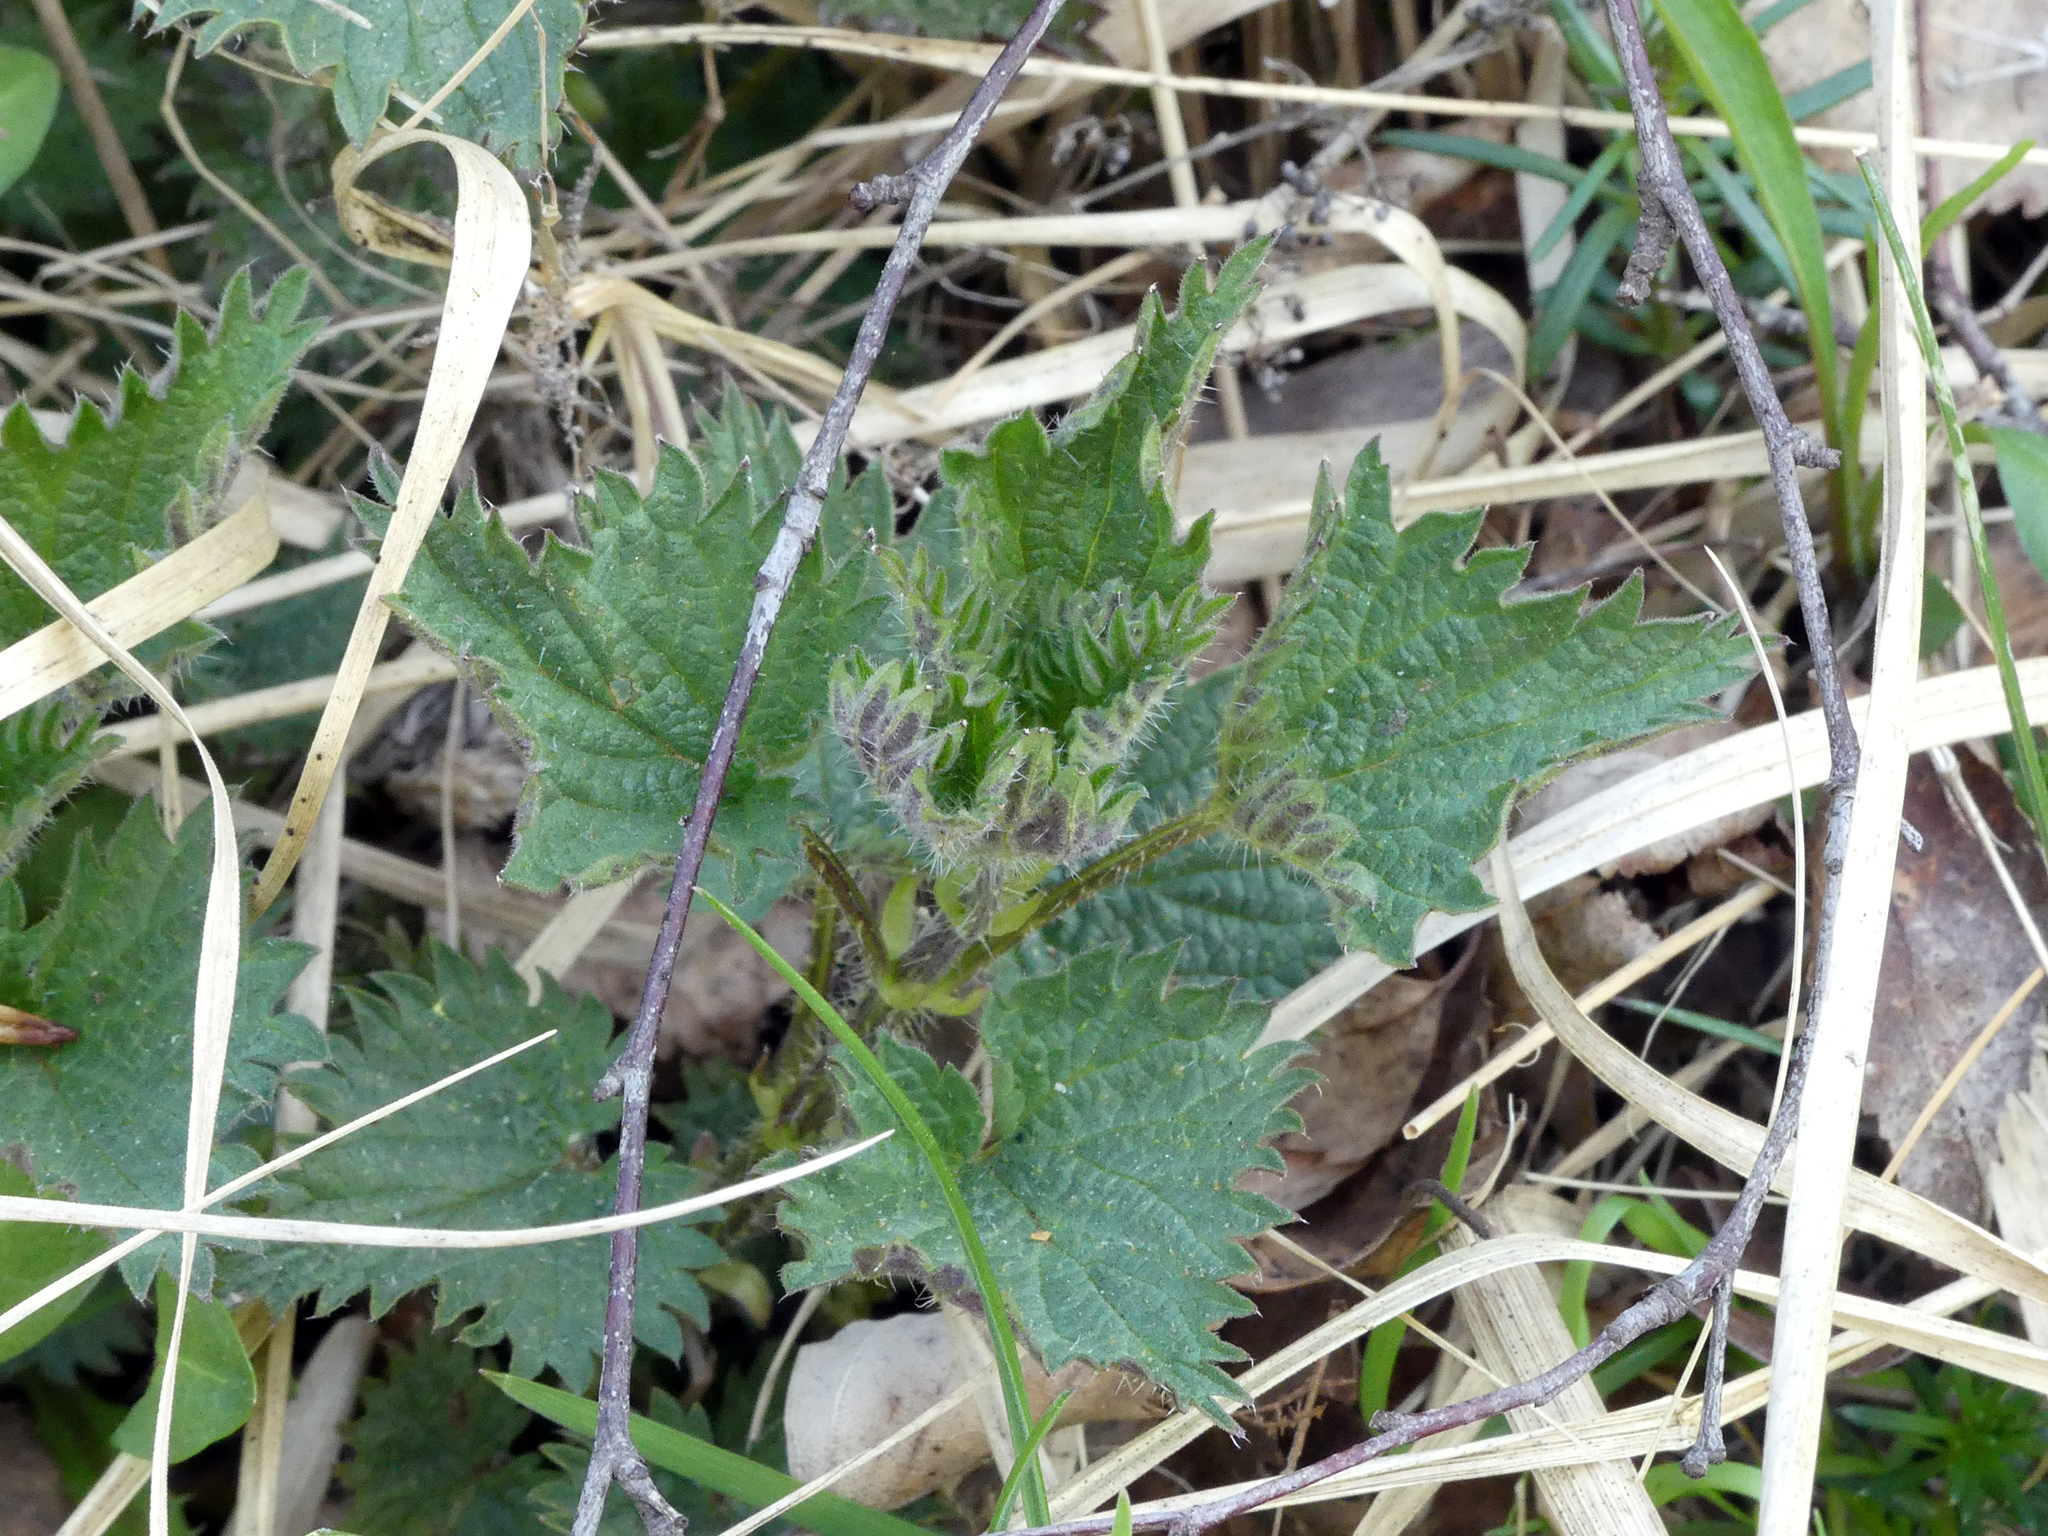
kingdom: Plantae
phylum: Tracheophyta
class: Magnoliopsida
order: Rosales
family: Urticaceae
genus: Urtica
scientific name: Urtica dioica
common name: Common nettle
